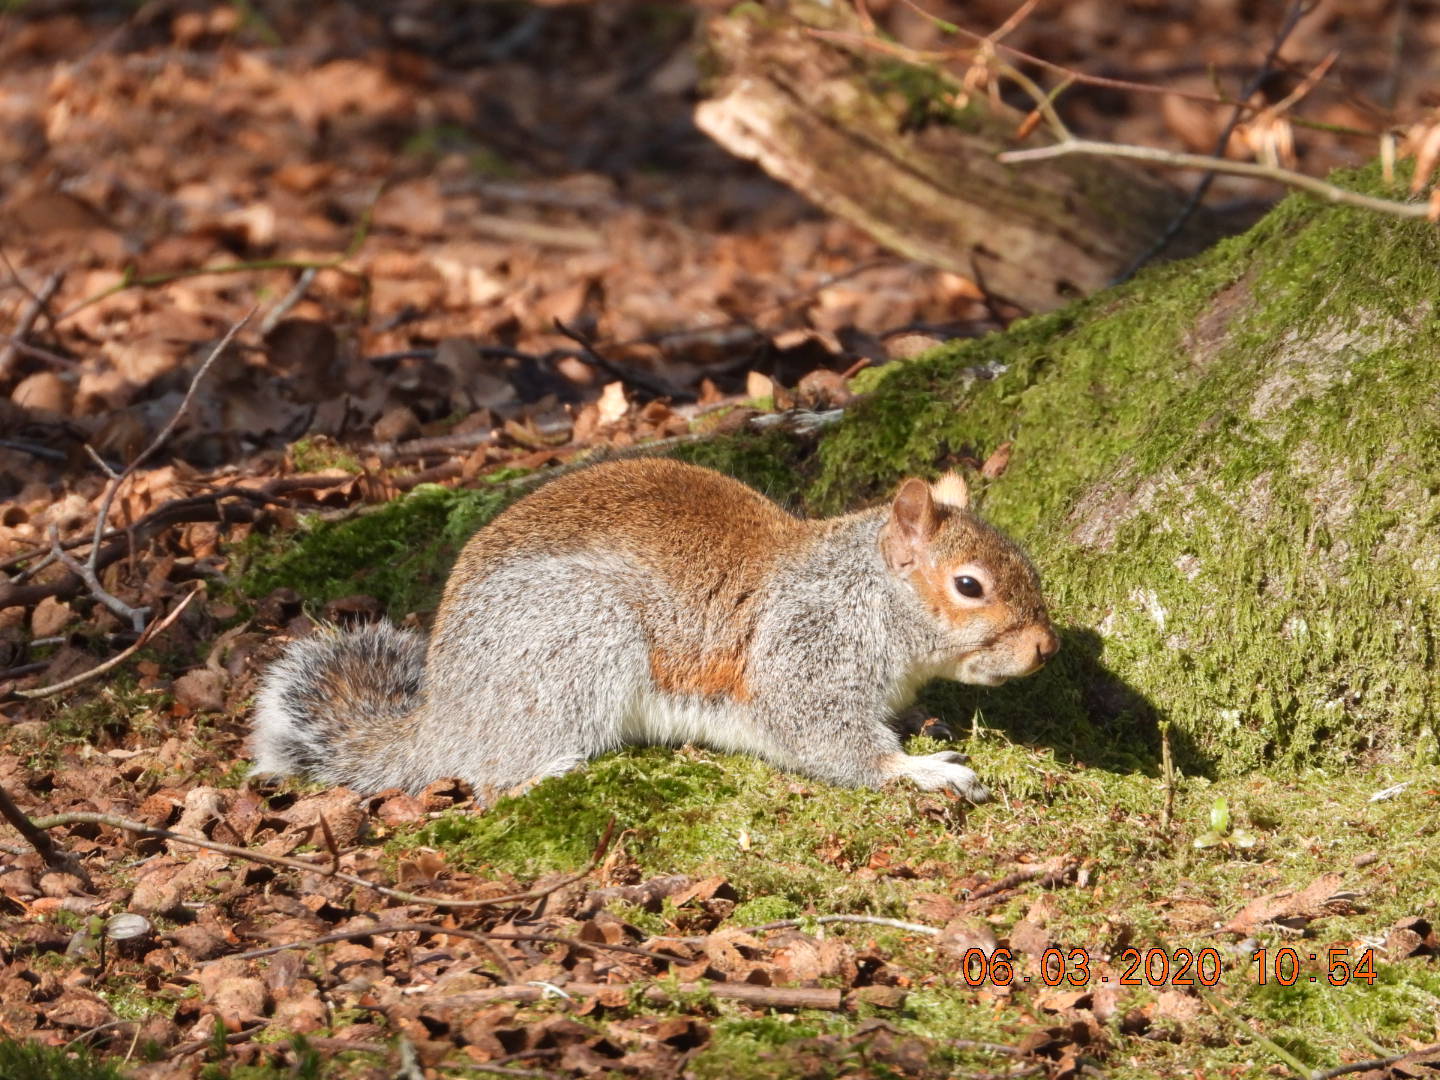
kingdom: Animalia
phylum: Chordata
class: Mammalia
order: Rodentia
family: Sciuridae
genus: Sciurus
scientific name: Sciurus carolinensis
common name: Eastern gray squirrel
